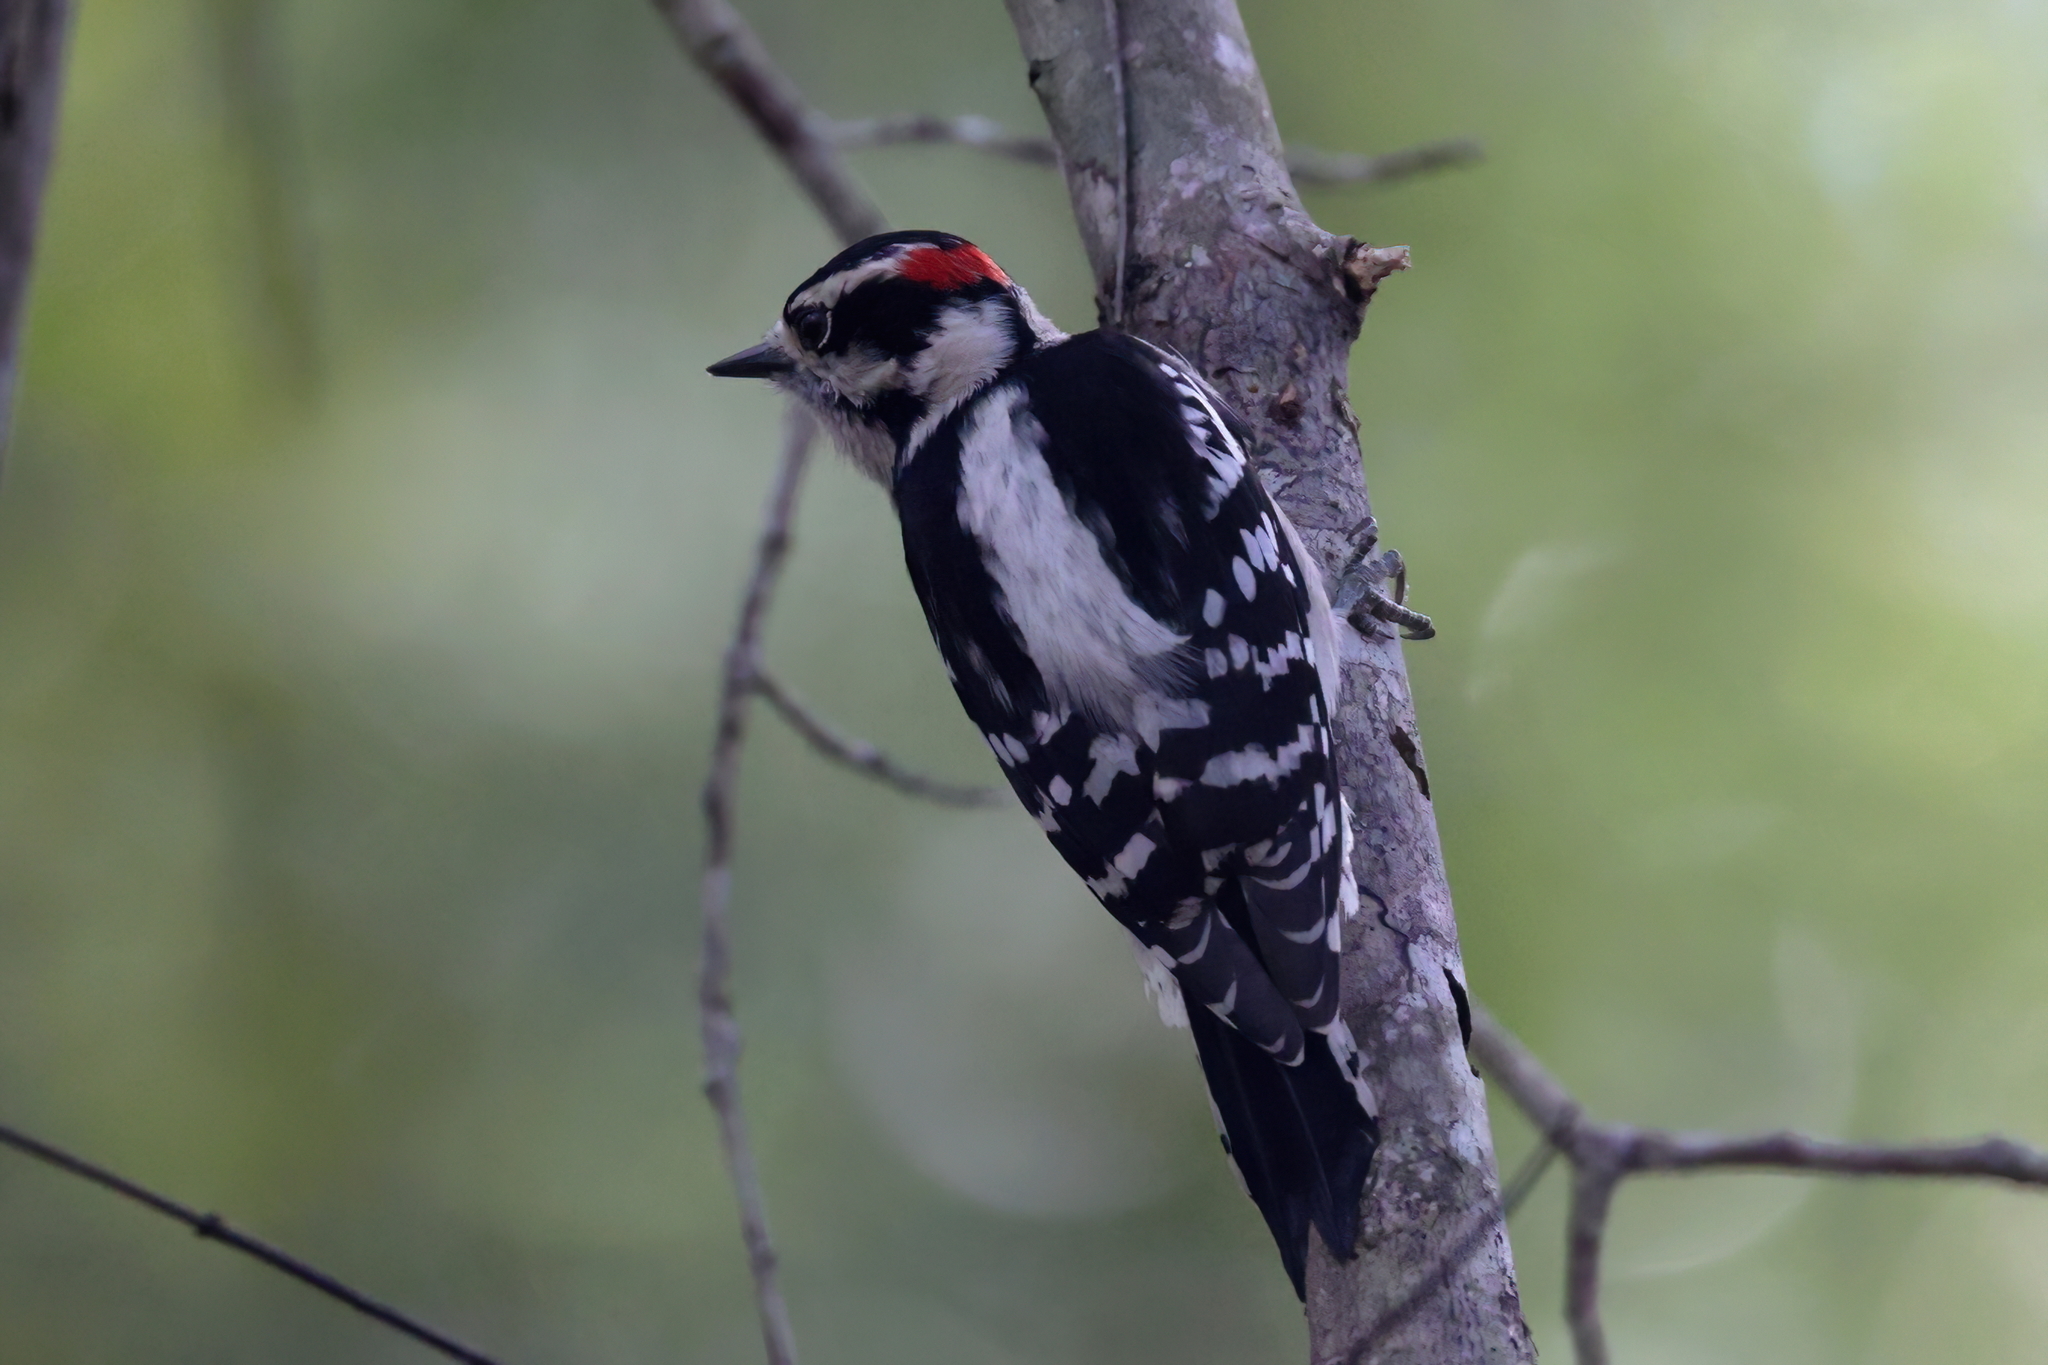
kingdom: Animalia
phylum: Chordata
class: Aves
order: Piciformes
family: Picidae
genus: Dryobates
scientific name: Dryobates pubescens
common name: Downy woodpecker
